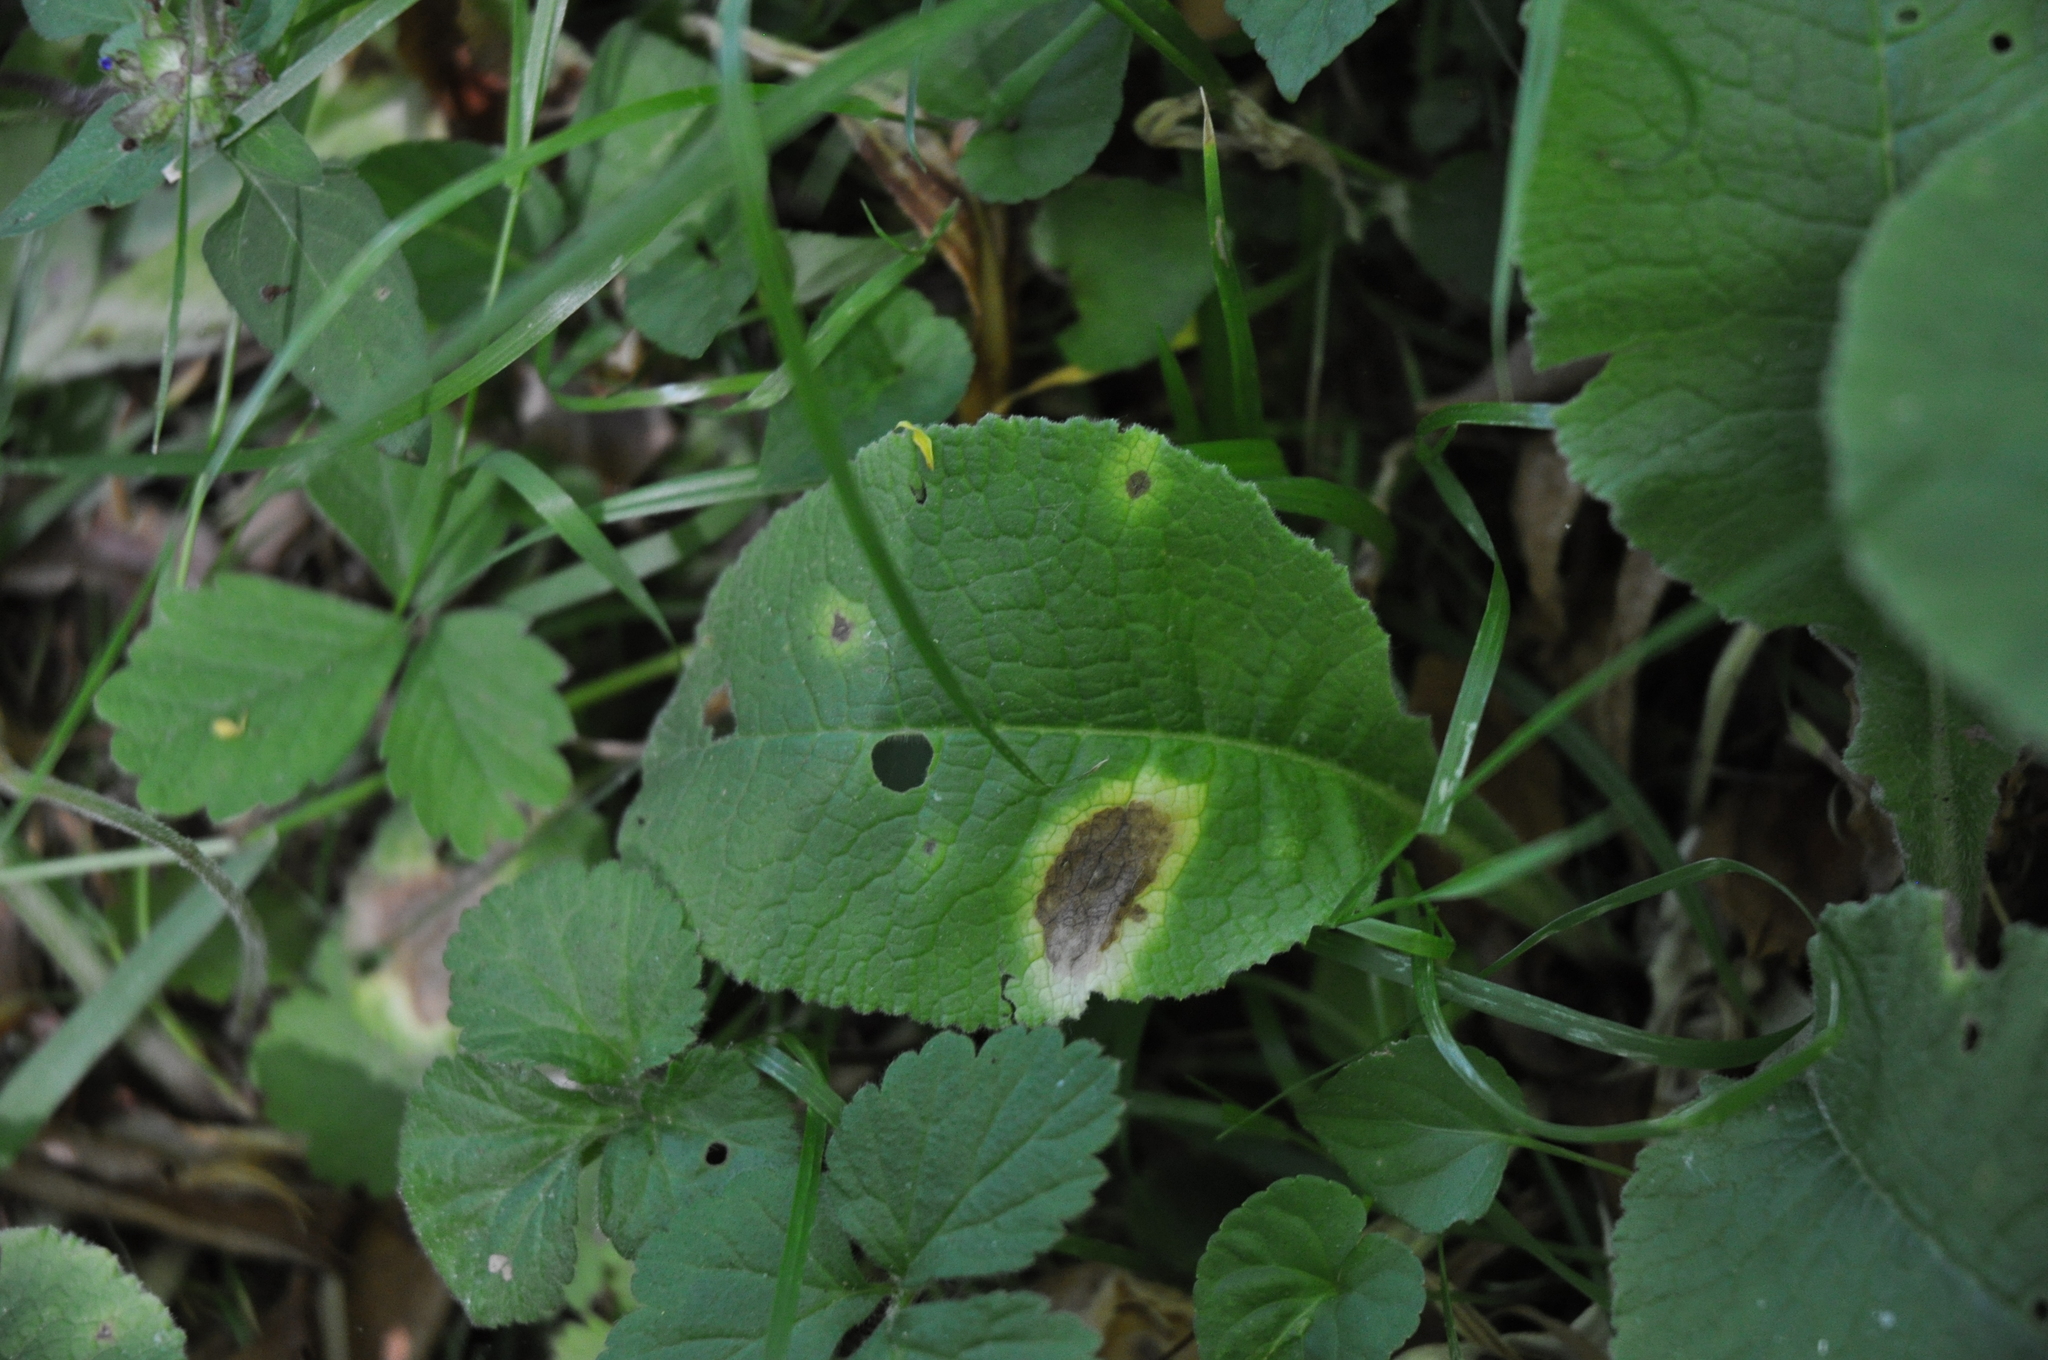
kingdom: Fungi
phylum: Ascomycota
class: Dothideomycetes
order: Mycosphaerellales
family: Mycosphaerellaceae
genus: Ramularia
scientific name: Ramularia primulae
